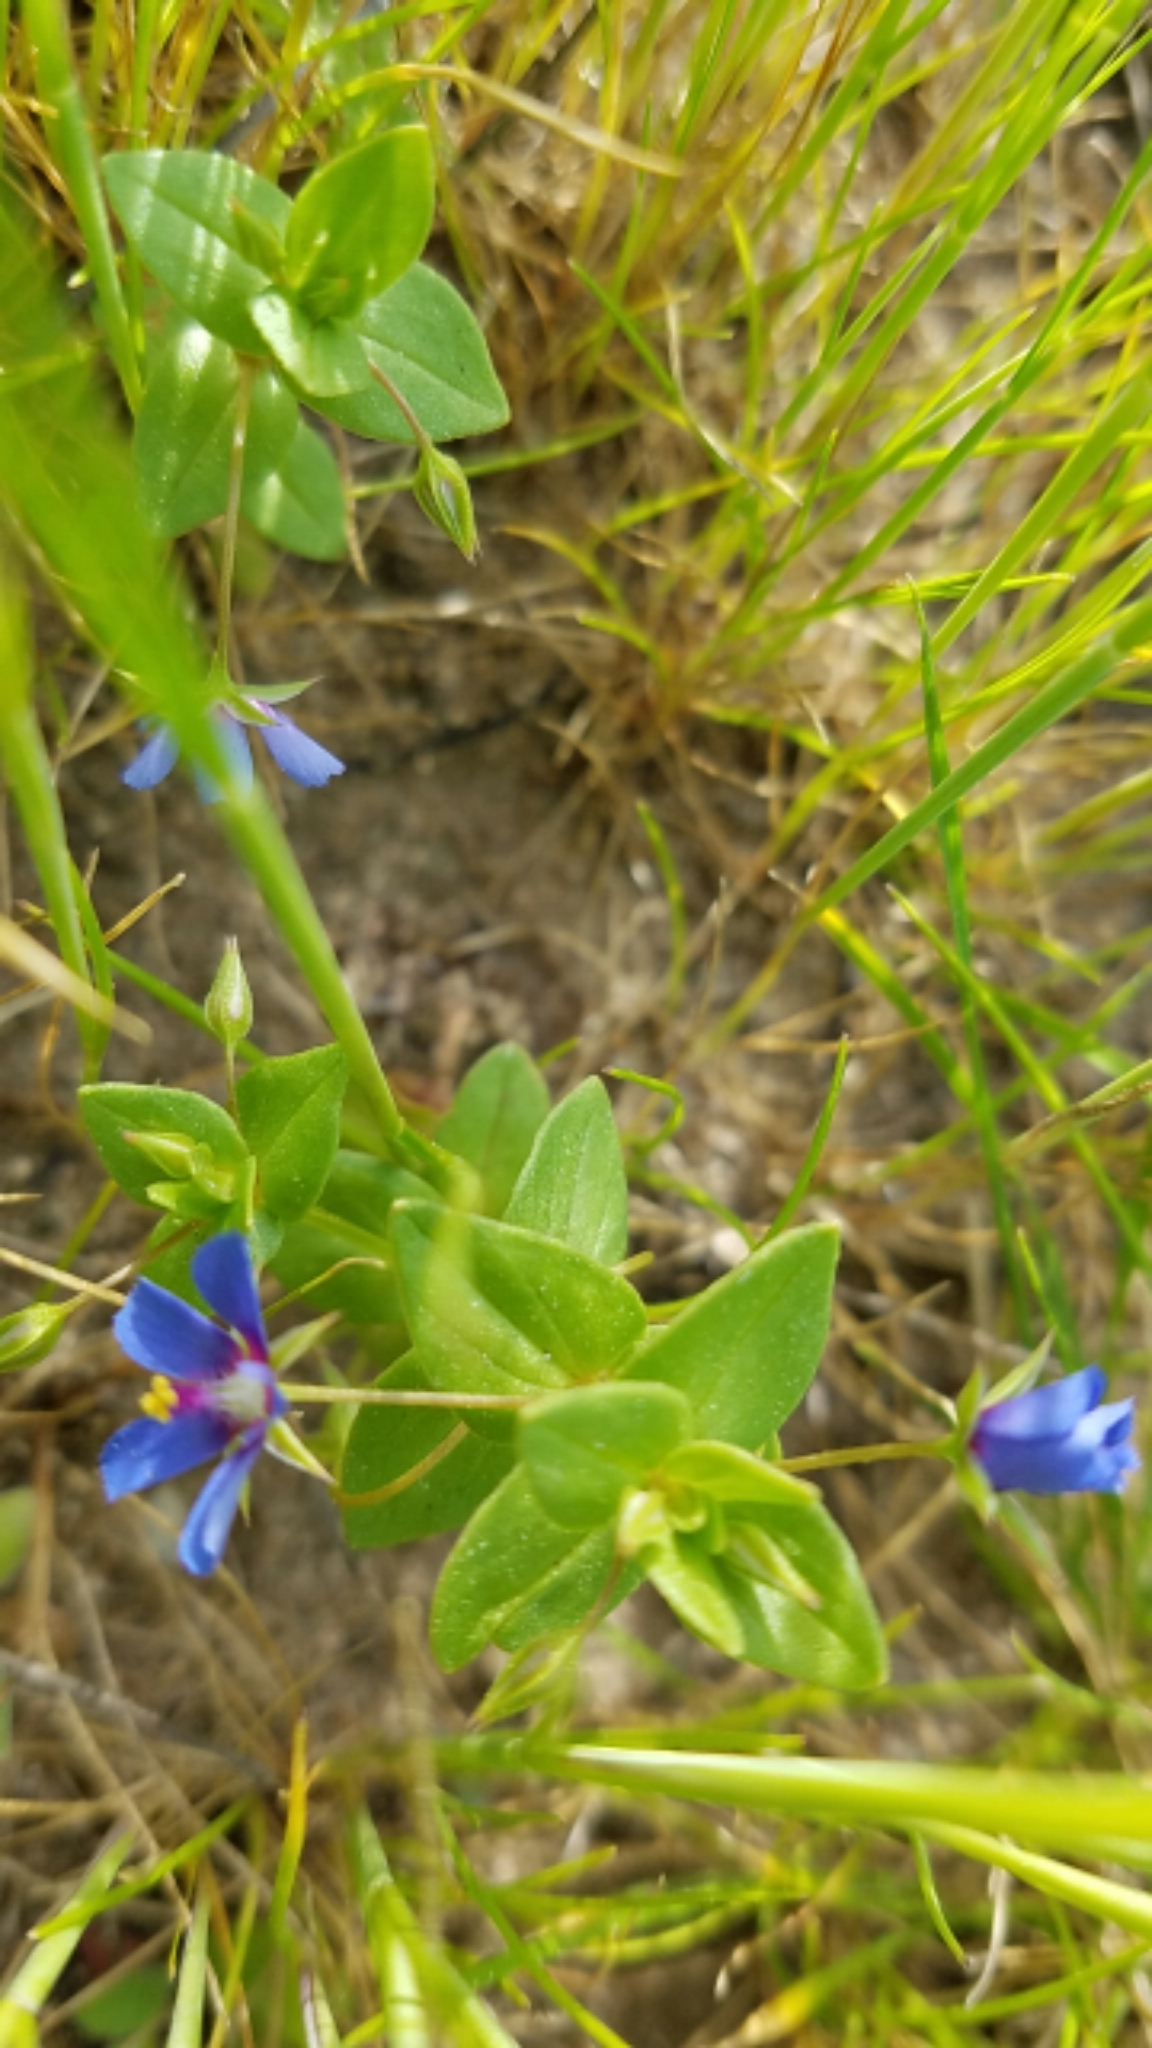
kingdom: Plantae
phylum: Tracheophyta
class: Magnoliopsida
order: Ericales
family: Primulaceae
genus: Lysimachia
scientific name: Lysimachia loeflingii
